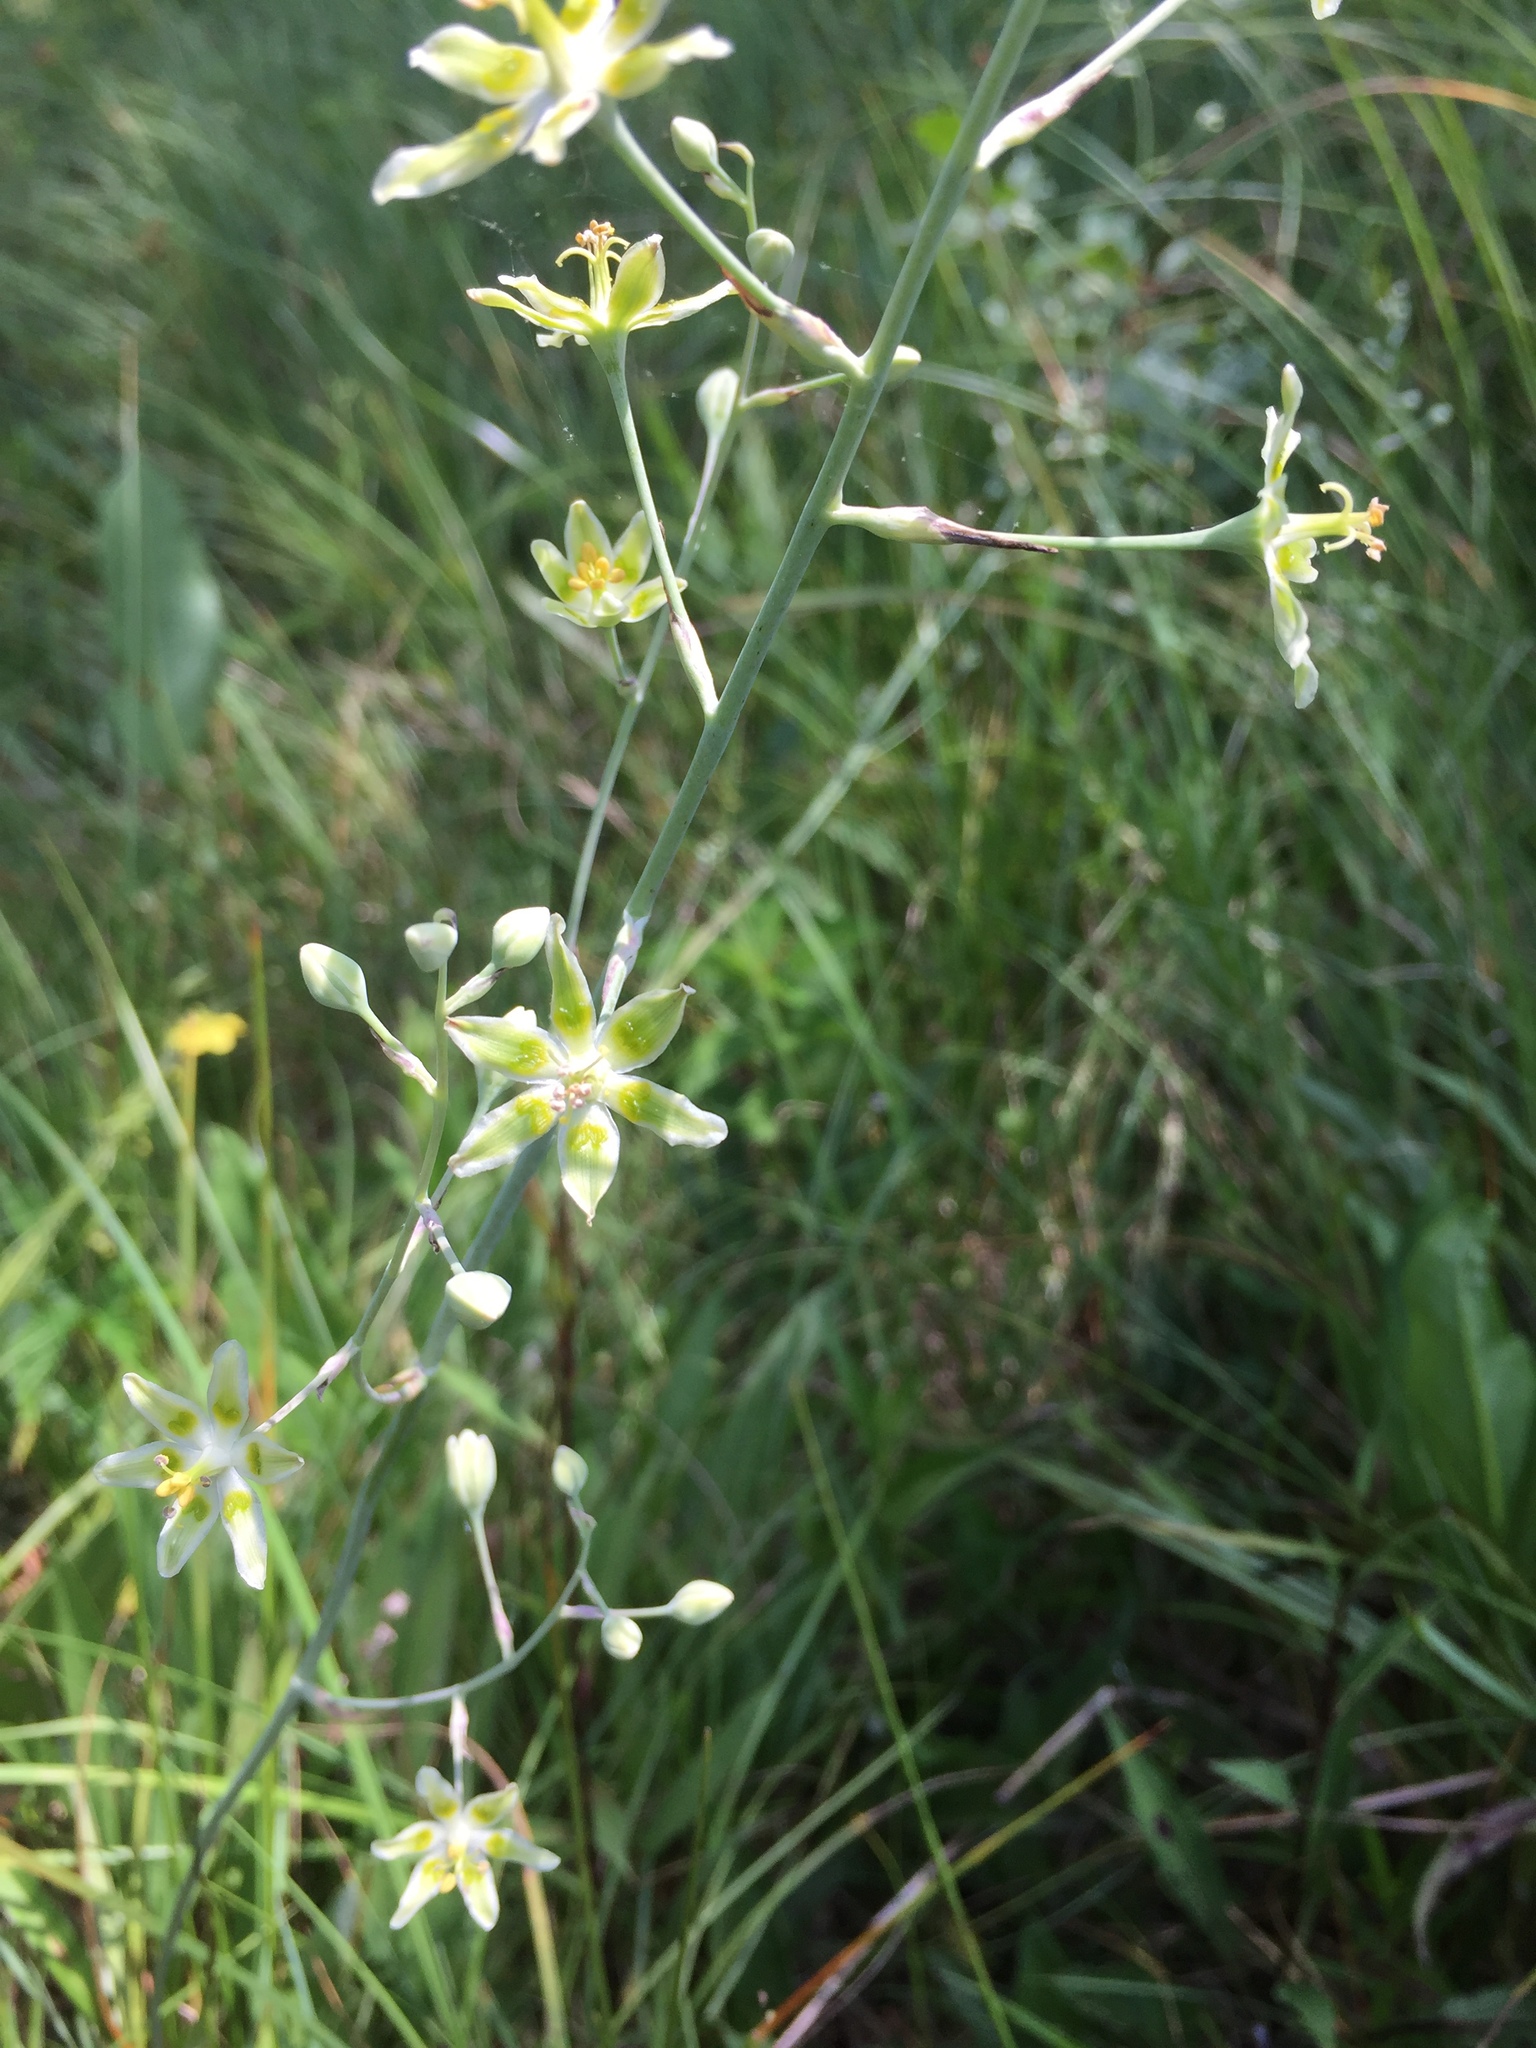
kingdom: Plantae
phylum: Tracheophyta
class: Liliopsida
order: Liliales
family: Melanthiaceae
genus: Anticlea
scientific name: Anticlea elegans
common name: Mountain death camas
